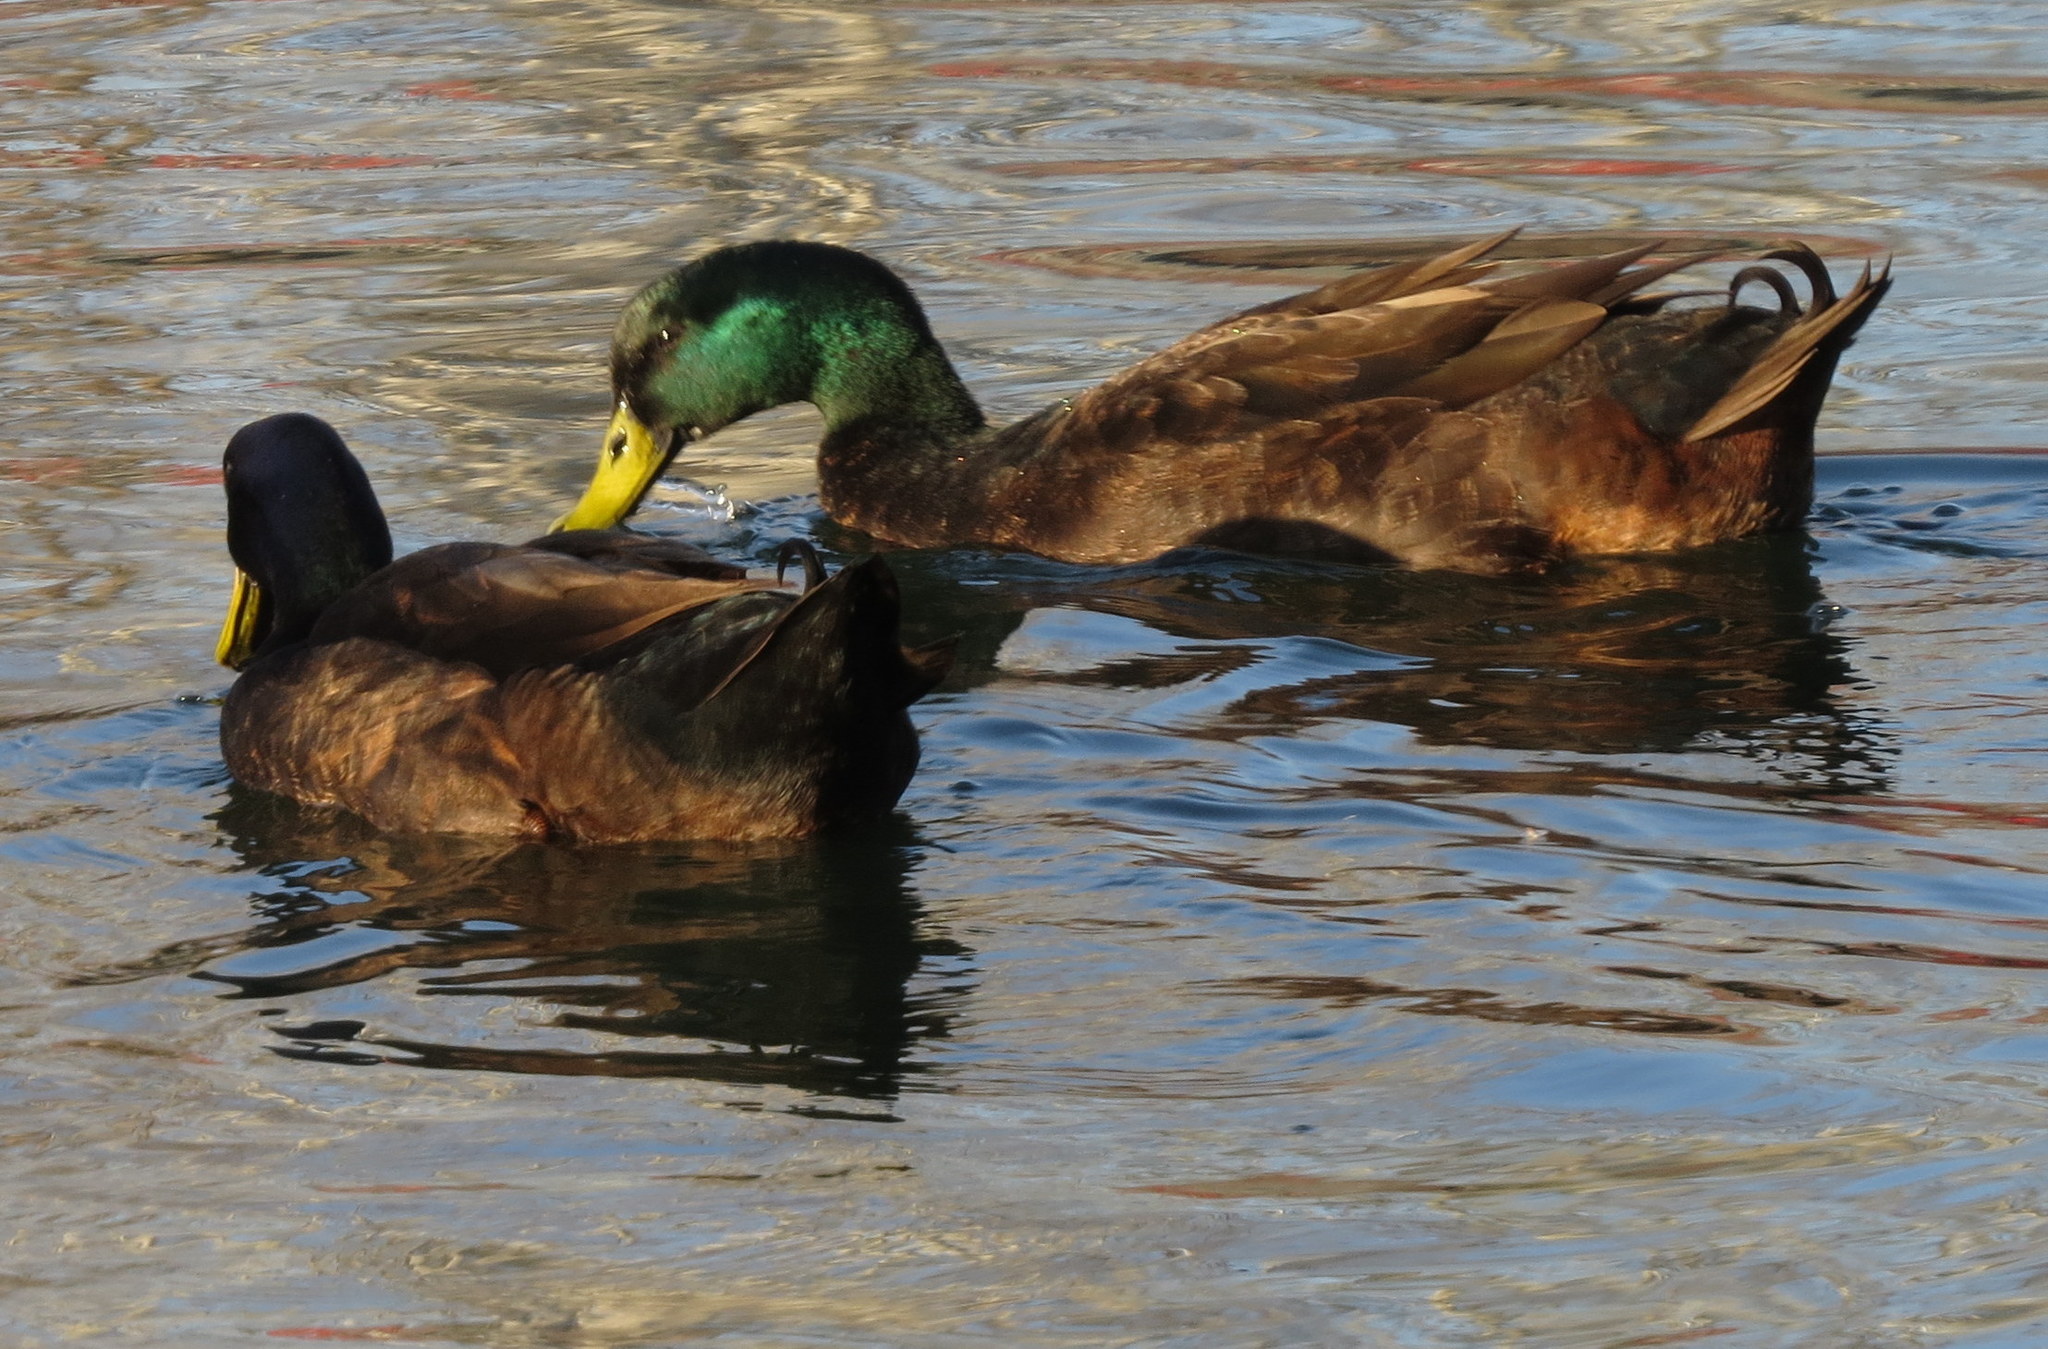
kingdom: Animalia
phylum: Chordata
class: Aves
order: Anseriformes
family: Anatidae
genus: Anas
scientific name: Anas platyrhynchos
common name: Mallard
